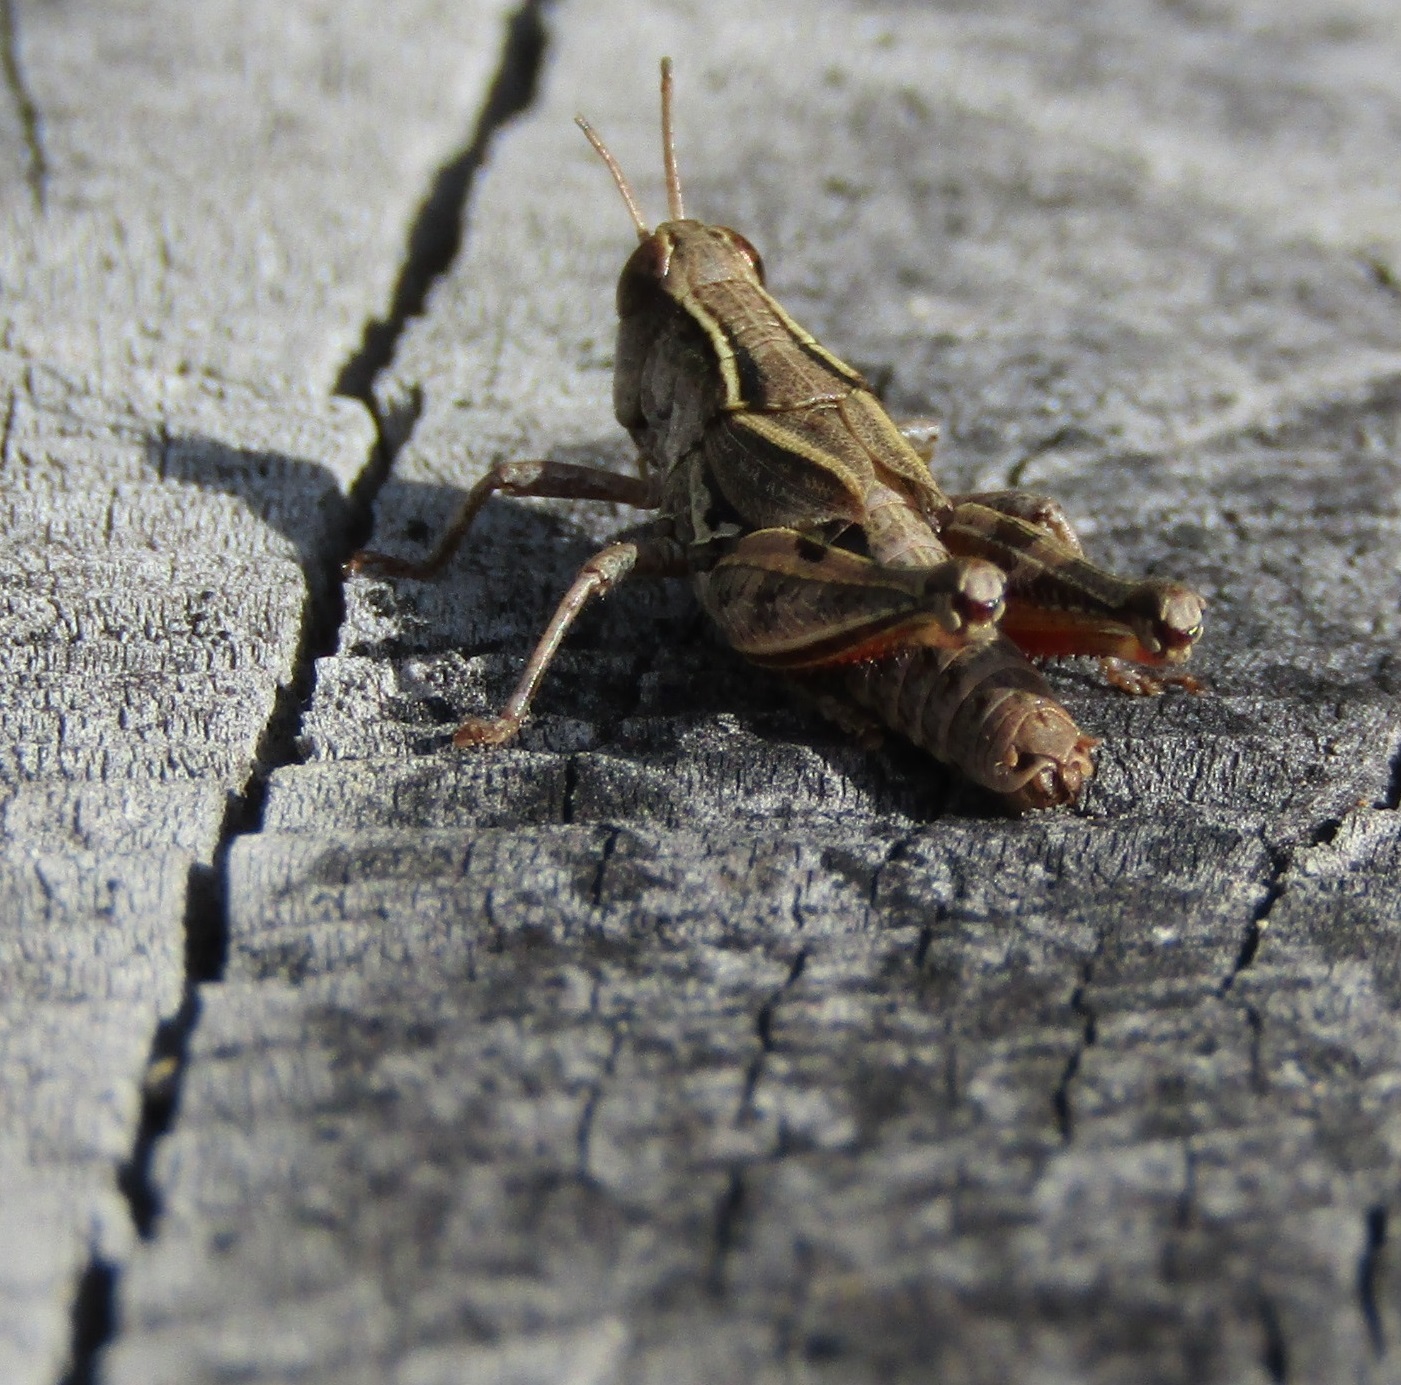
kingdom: Animalia
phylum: Arthropoda
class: Insecta
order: Orthoptera
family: Acrididae
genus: Phaulacridium
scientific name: Phaulacridium marginale
